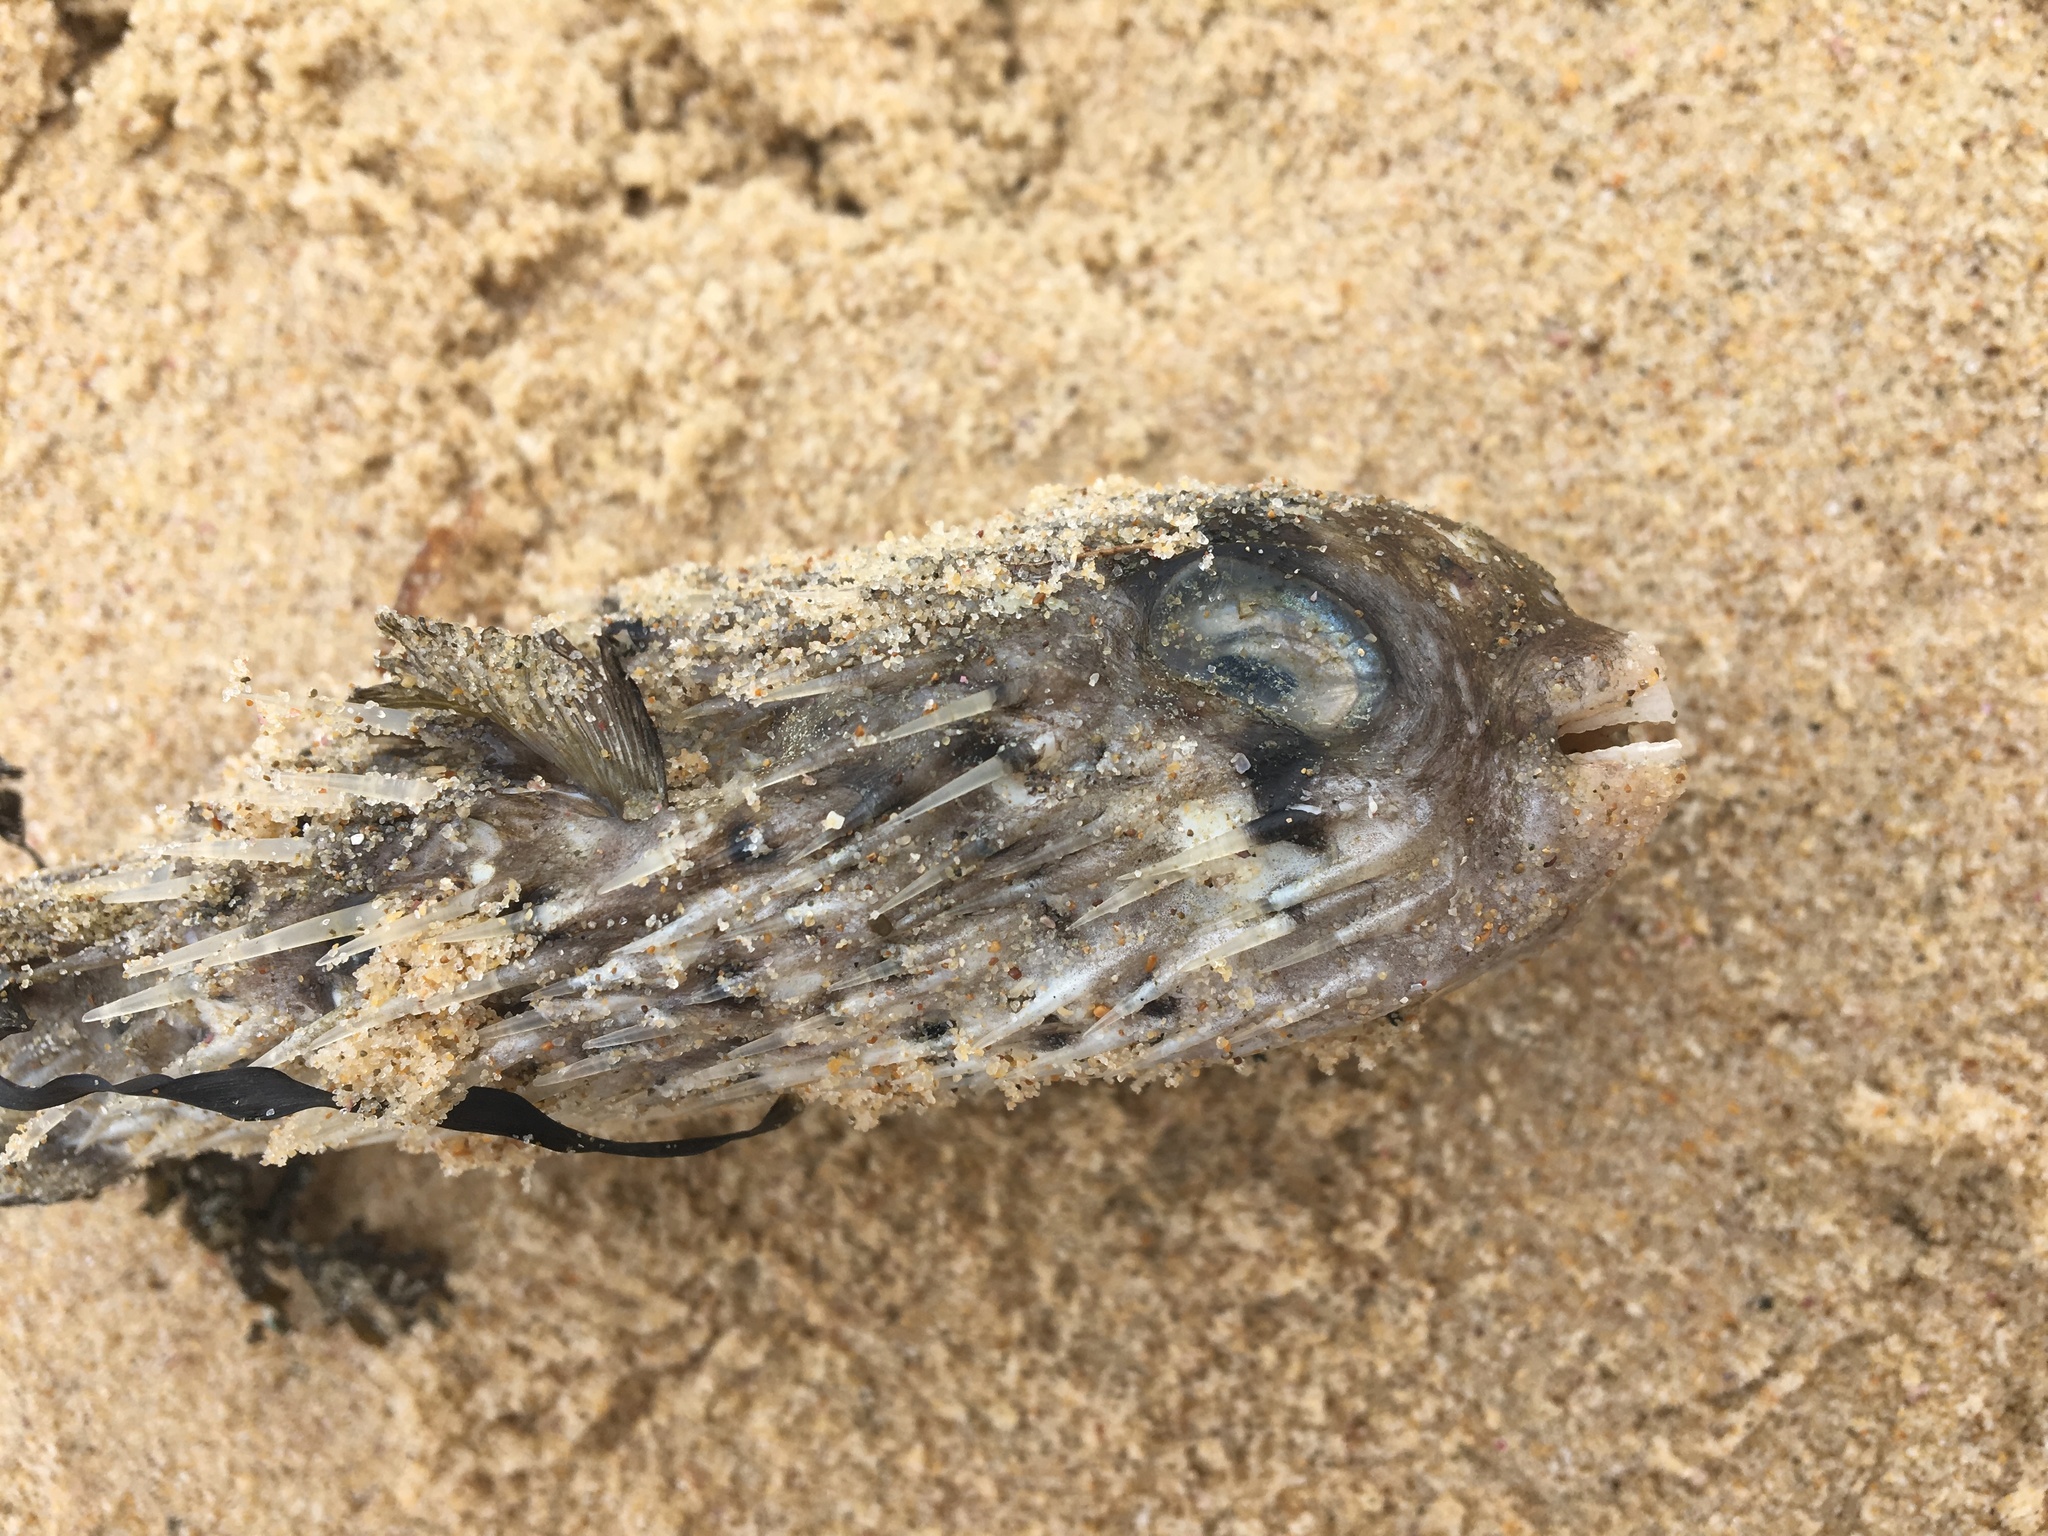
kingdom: Animalia
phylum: Chordata
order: Tetraodontiformes
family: Diodontidae
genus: Dicotylichthys
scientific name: Dicotylichthys punctulatus
